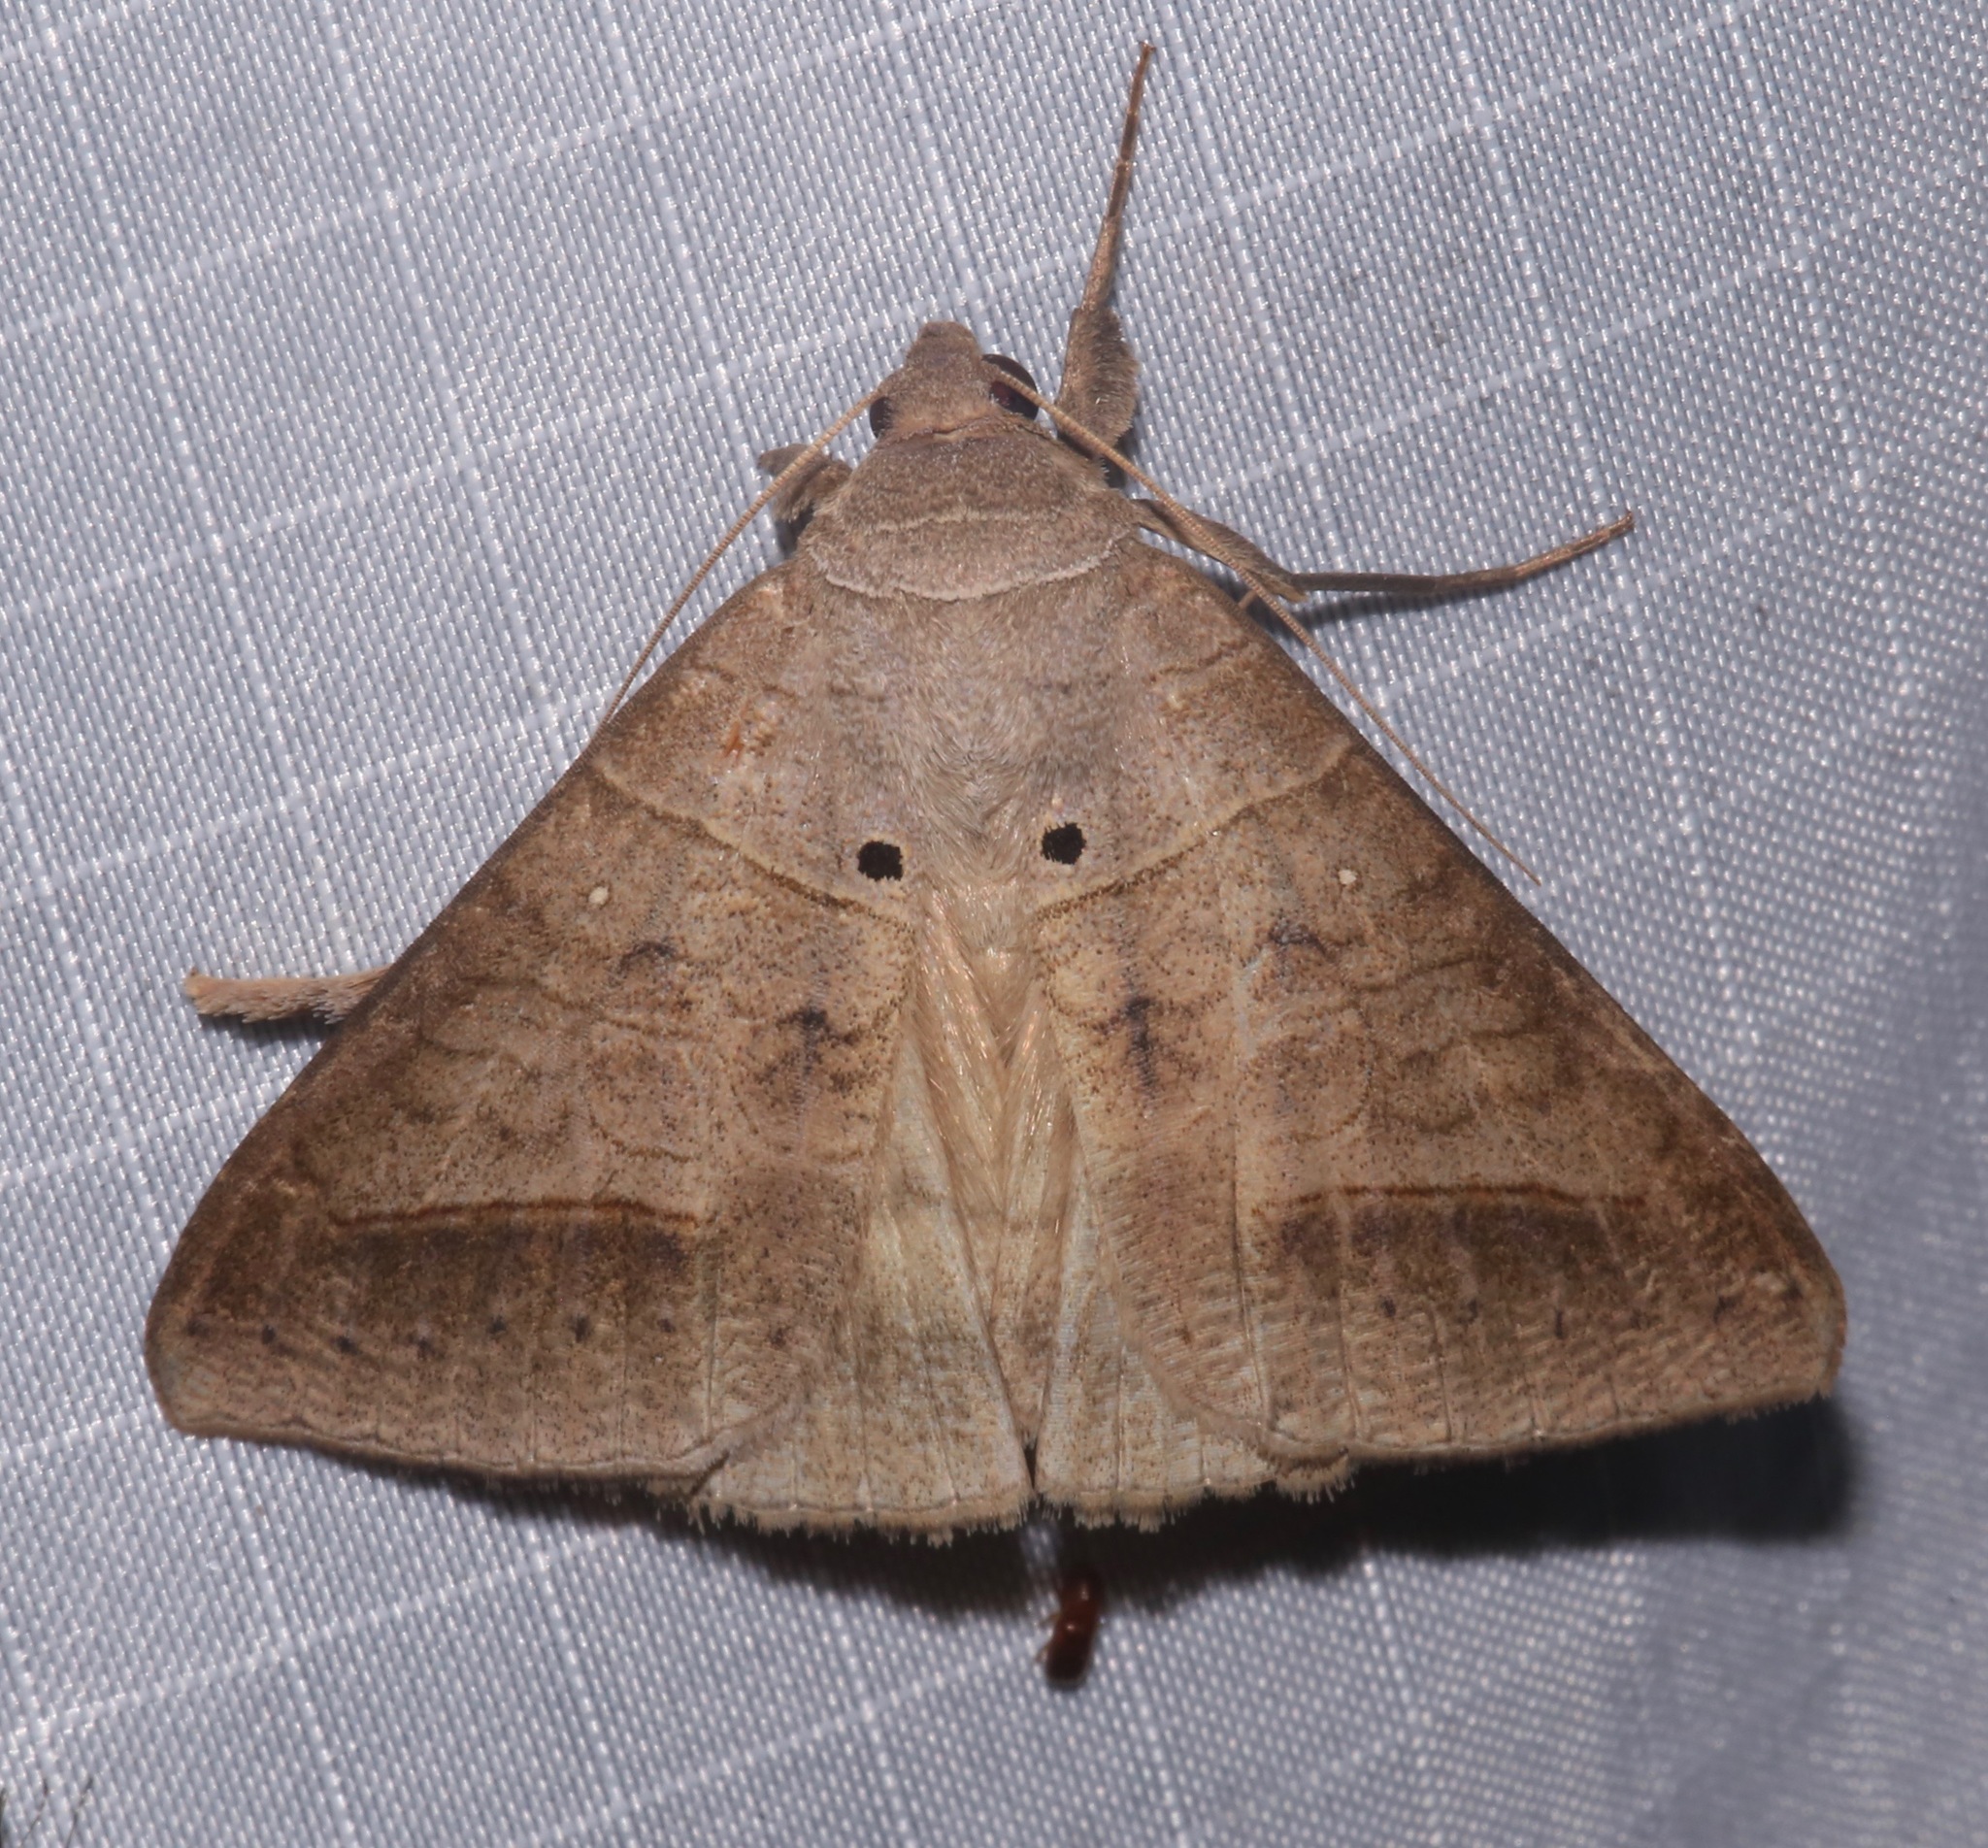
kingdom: Animalia
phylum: Arthropoda
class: Insecta
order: Lepidoptera
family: Erebidae
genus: Mocis
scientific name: Mocis marcida
